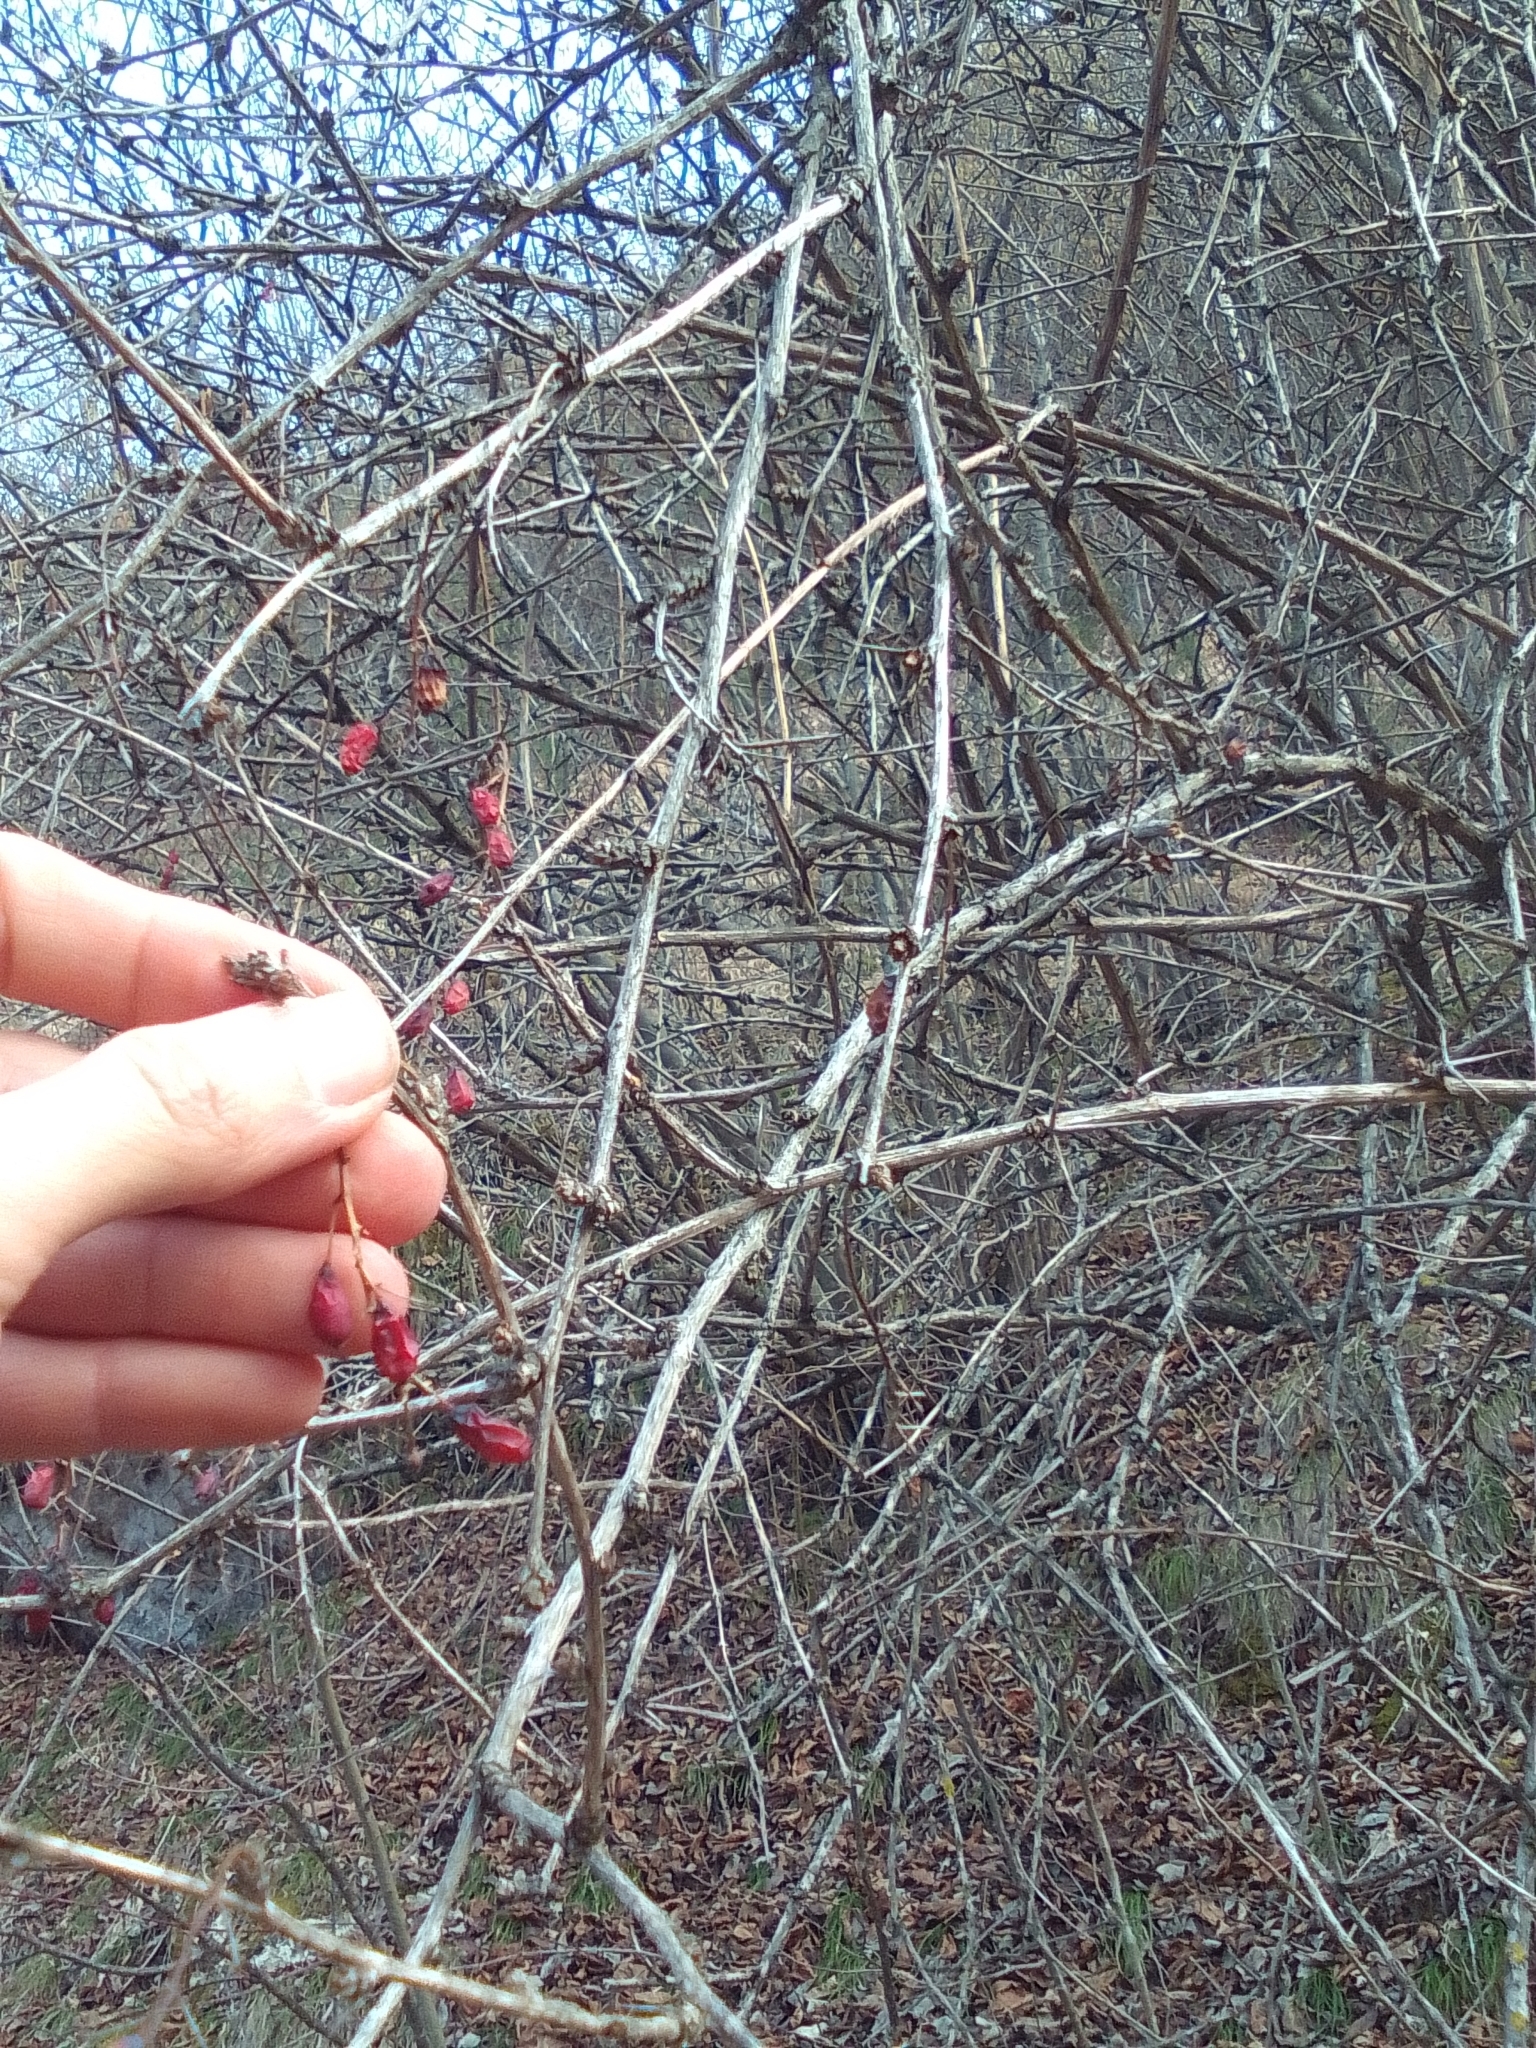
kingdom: Plantae
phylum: Tracheophyta
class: Magnoliopsida
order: Ranunculales
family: Berberidaceae
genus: Berberis
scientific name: Berberis vulgaris
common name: Barberry
